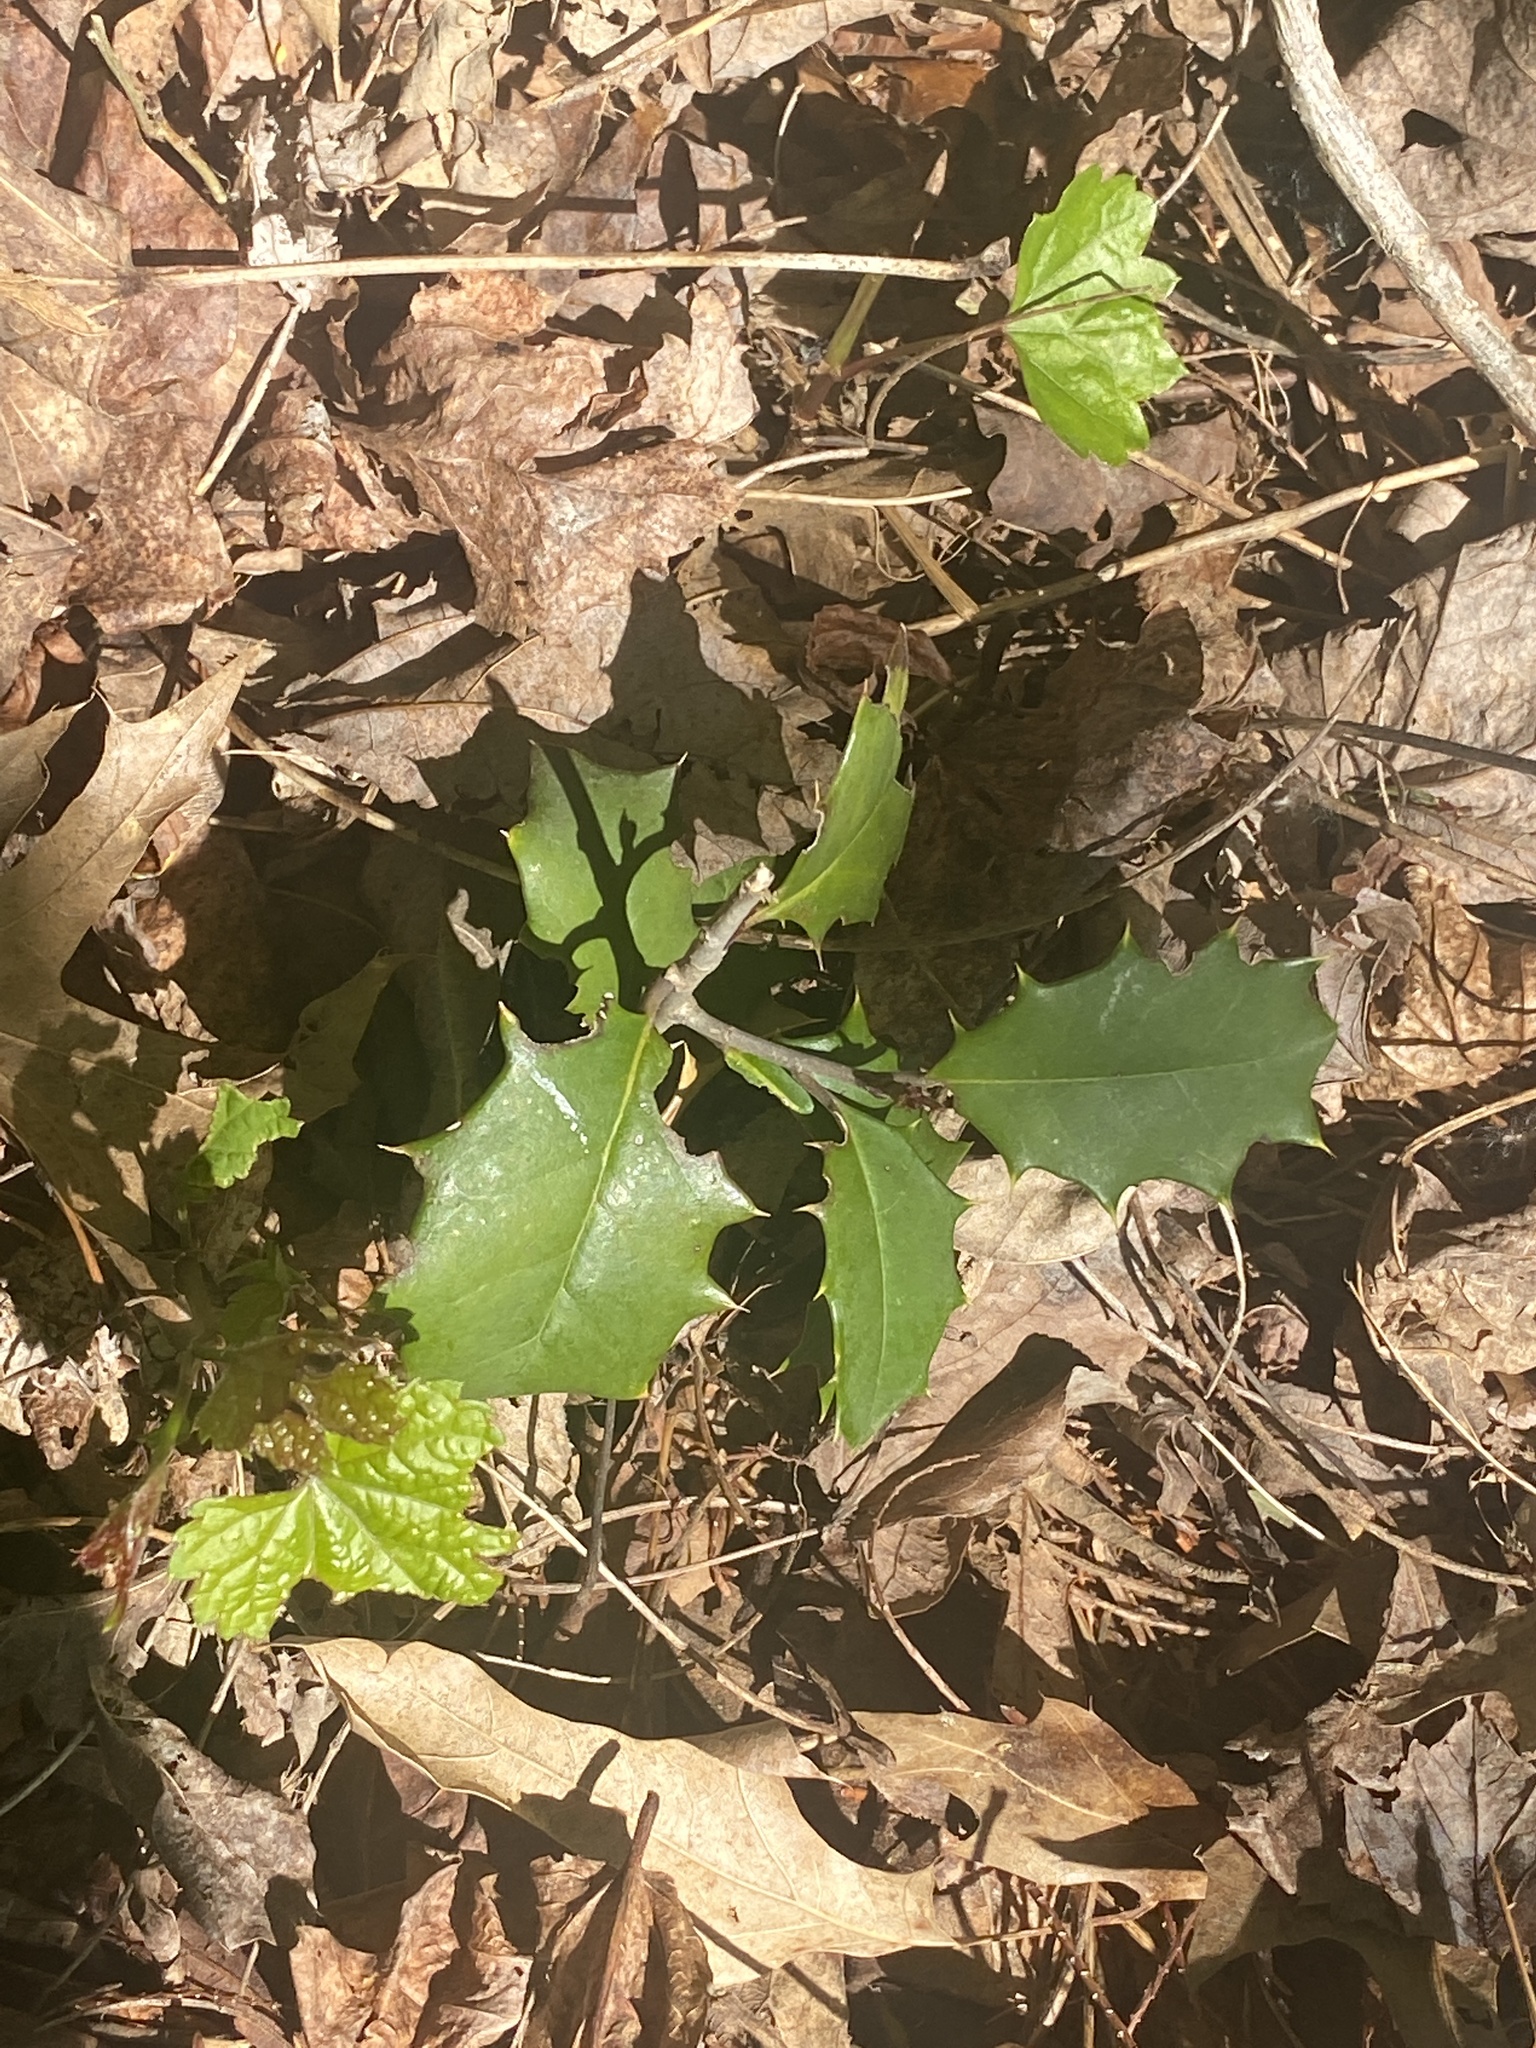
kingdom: Plantae
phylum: Tracheophyta
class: Magnoliopsida
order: Aquifoliales
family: Aquifoliaceae
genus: Ilex
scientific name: Ilex opaca
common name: American holly
